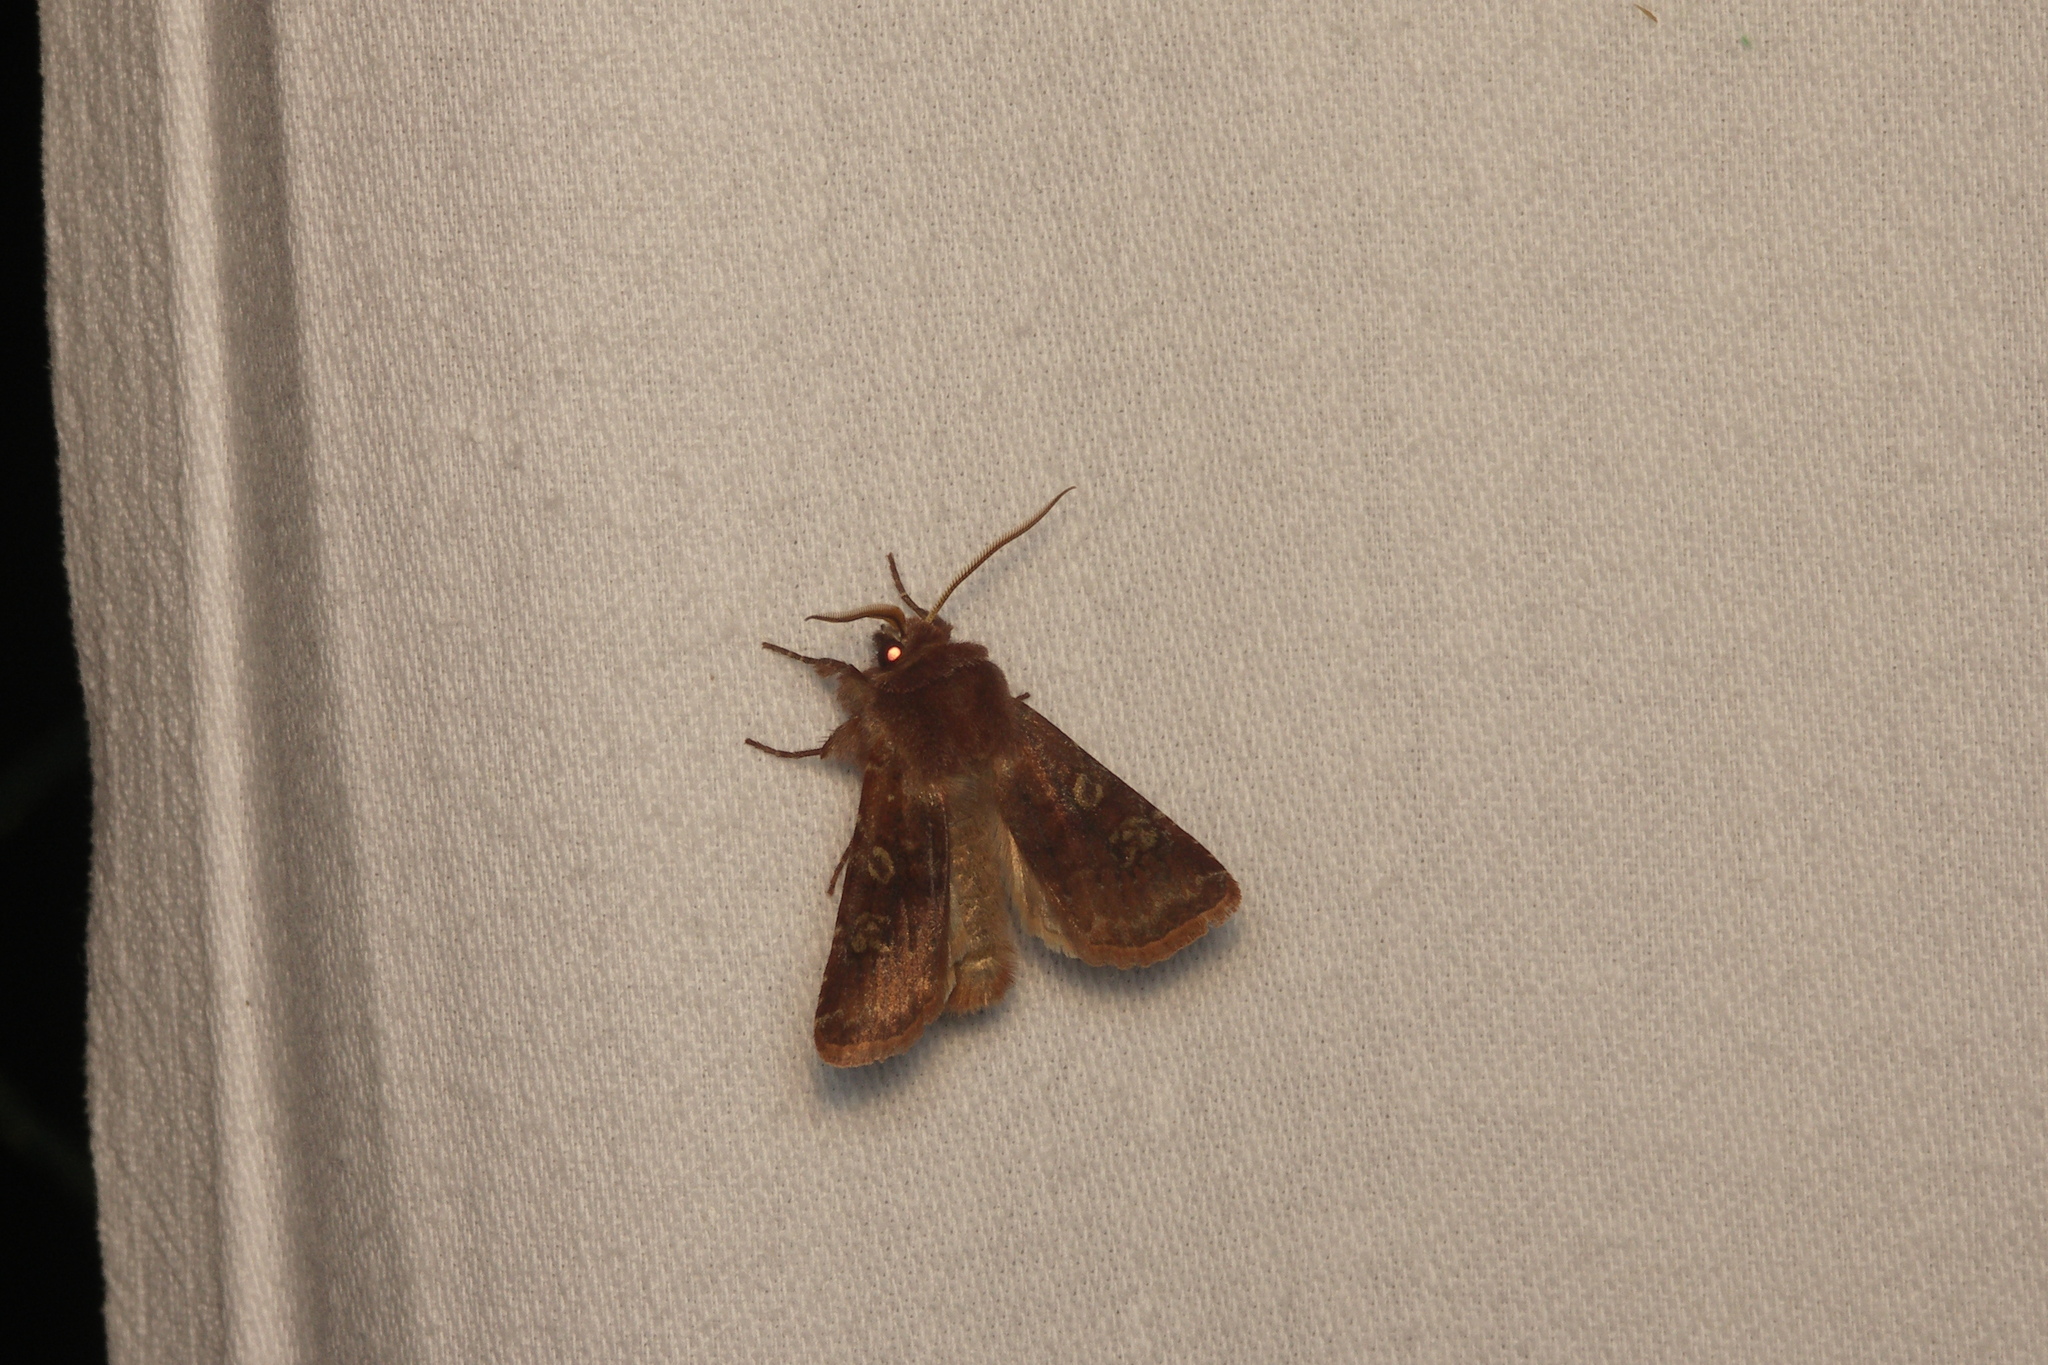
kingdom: Animalia
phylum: Arthropoda
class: Insecta
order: Lepidoptera
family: Noctuidae
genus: Cerastis
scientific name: Cerastis leucographa
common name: White-marked
